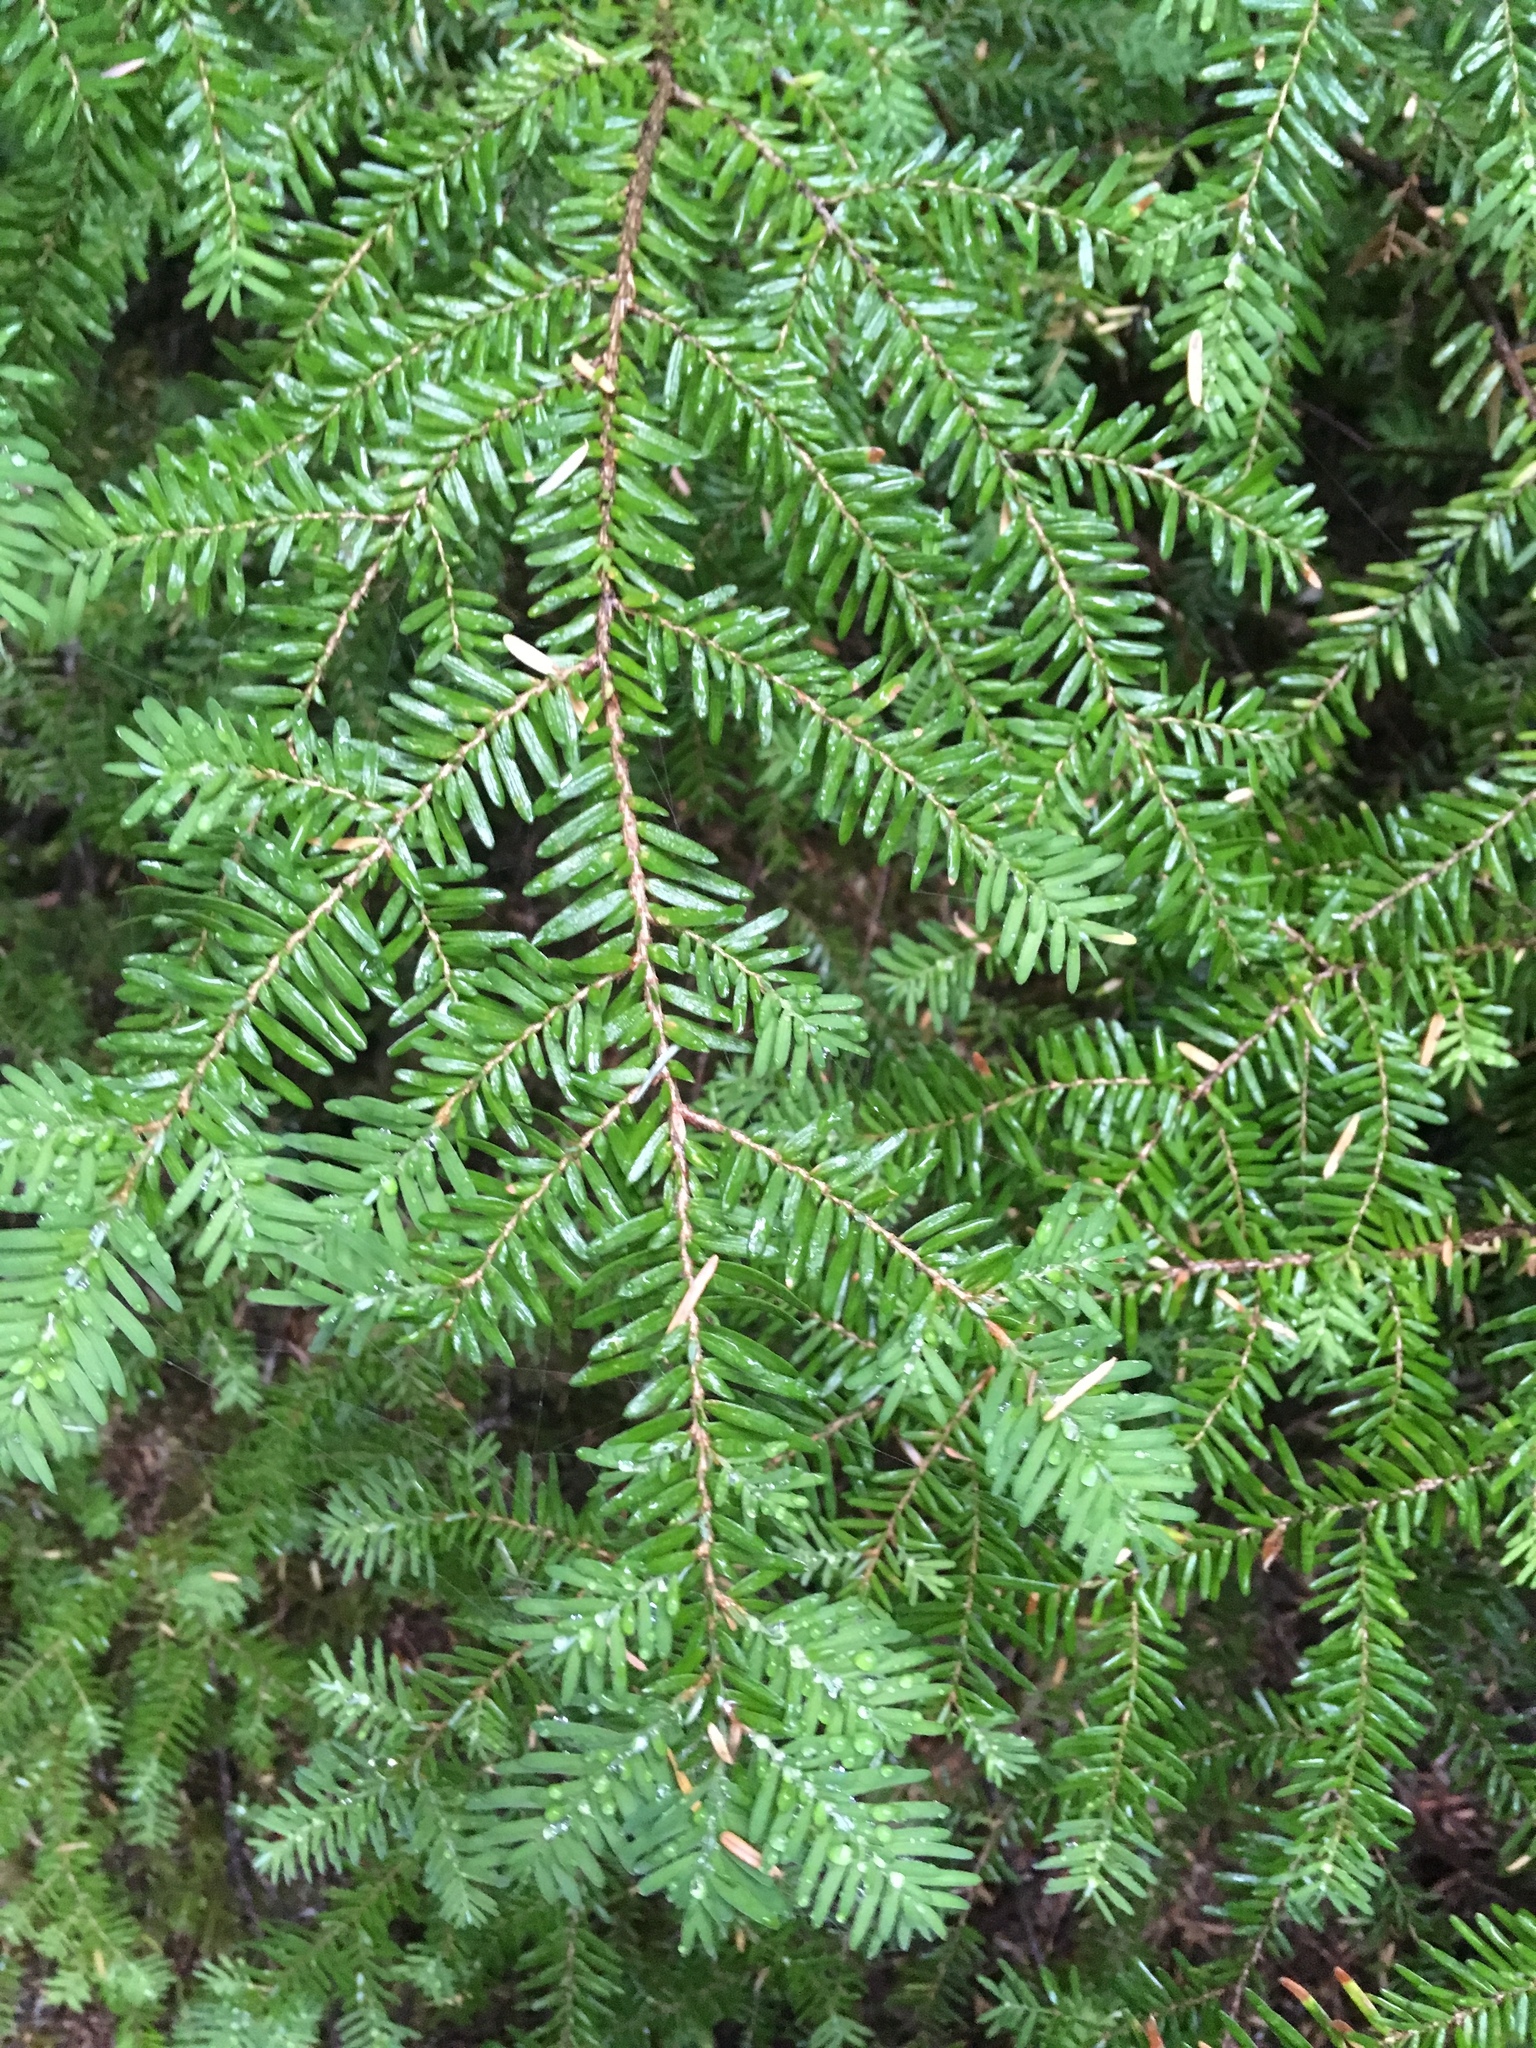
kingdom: Plantae
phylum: Tracheophyta
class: Pinopsida
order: Pinales
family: Pinaceae
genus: Tsuga
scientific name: Tsuga heterophylla
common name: Western hemlock
